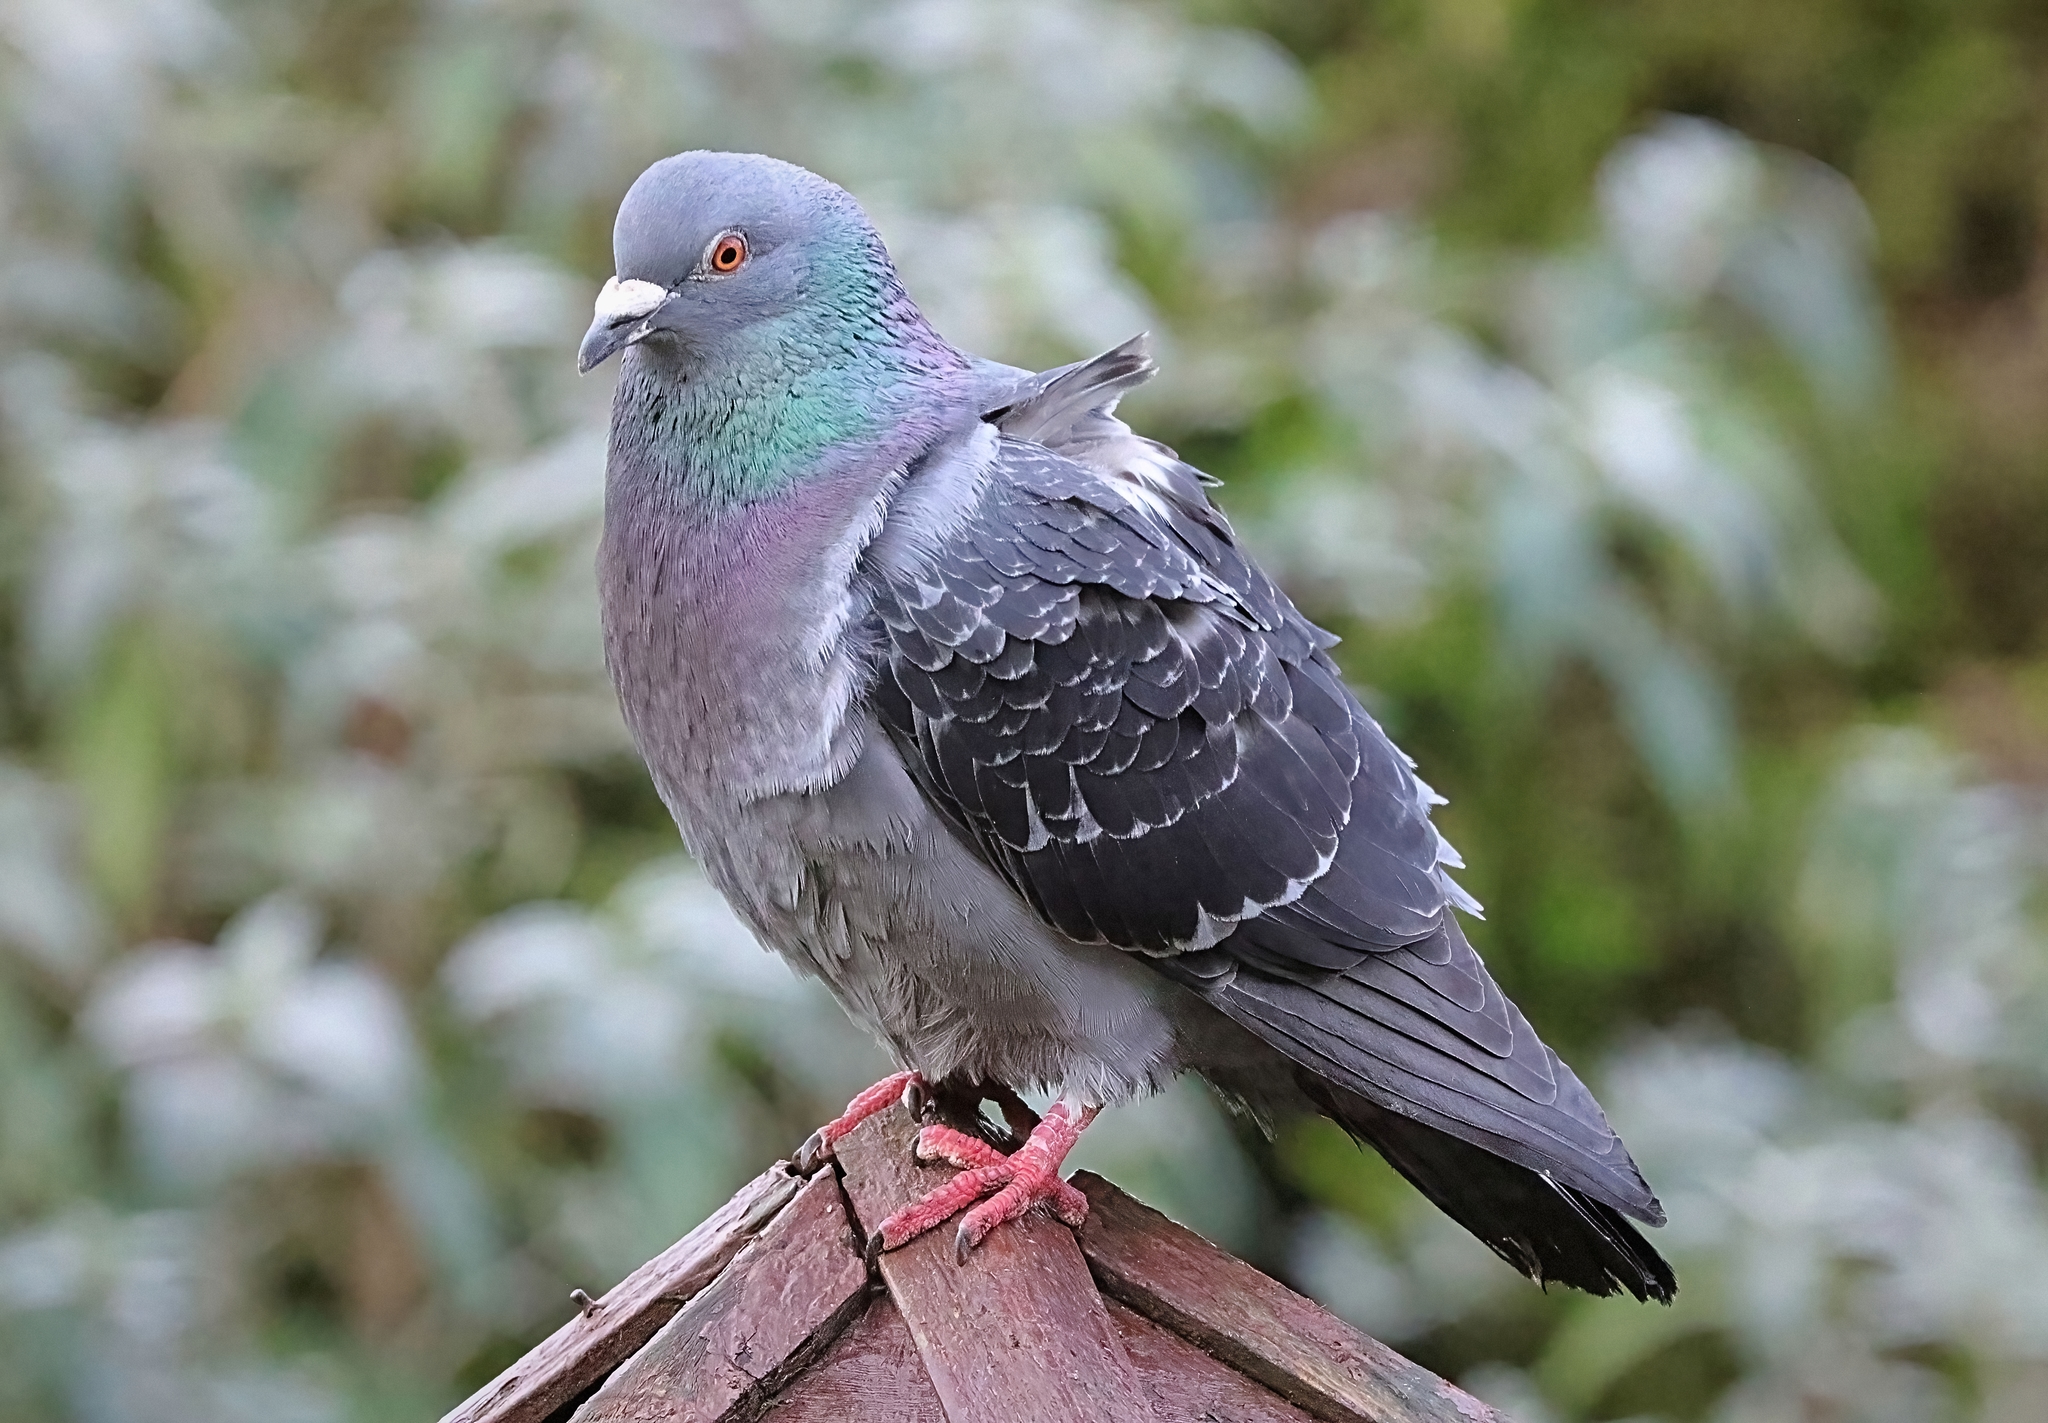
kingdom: Animalia
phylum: Chordata
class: Aves
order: Columbiformes
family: Columbidae
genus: Columba
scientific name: Columba livia
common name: Rock pigeon
